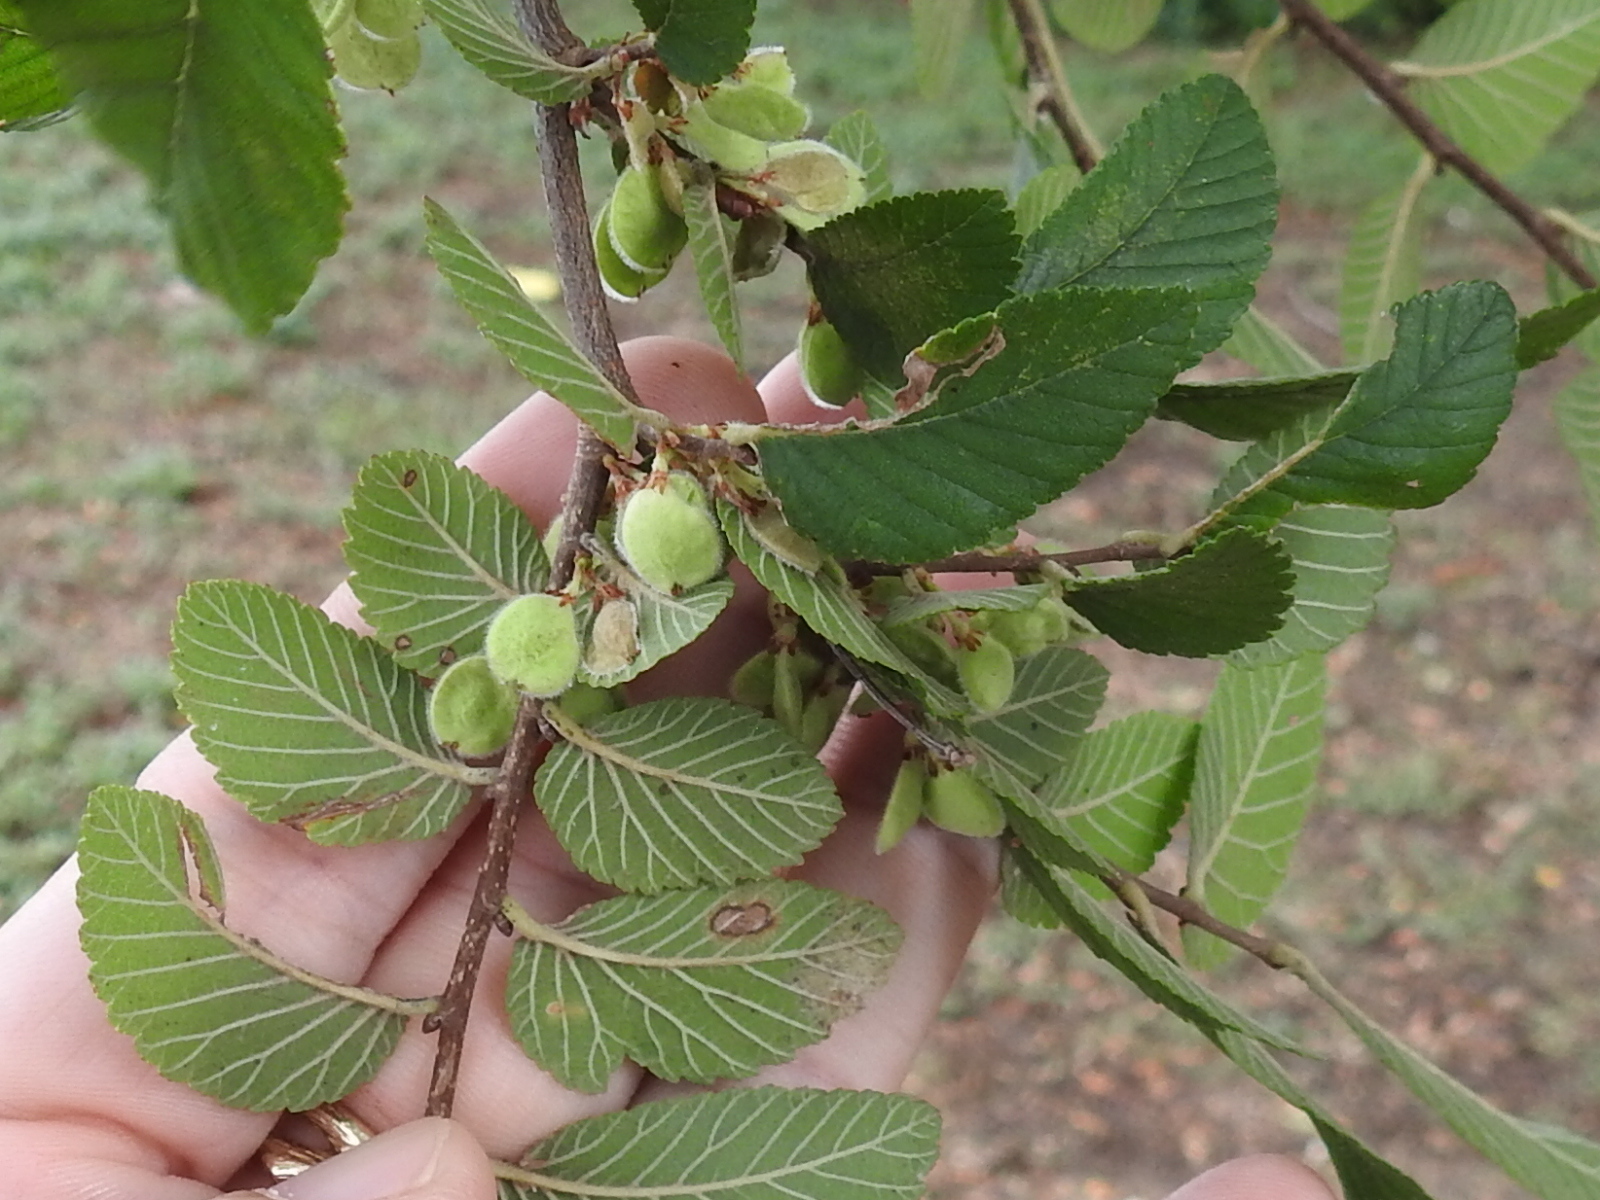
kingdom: Plantae
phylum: Tracheophyta
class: Magnoliopsida
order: Rosales
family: Ulmaceae
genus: Ulmus
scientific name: Ulmus crassifolia
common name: Basket elm
